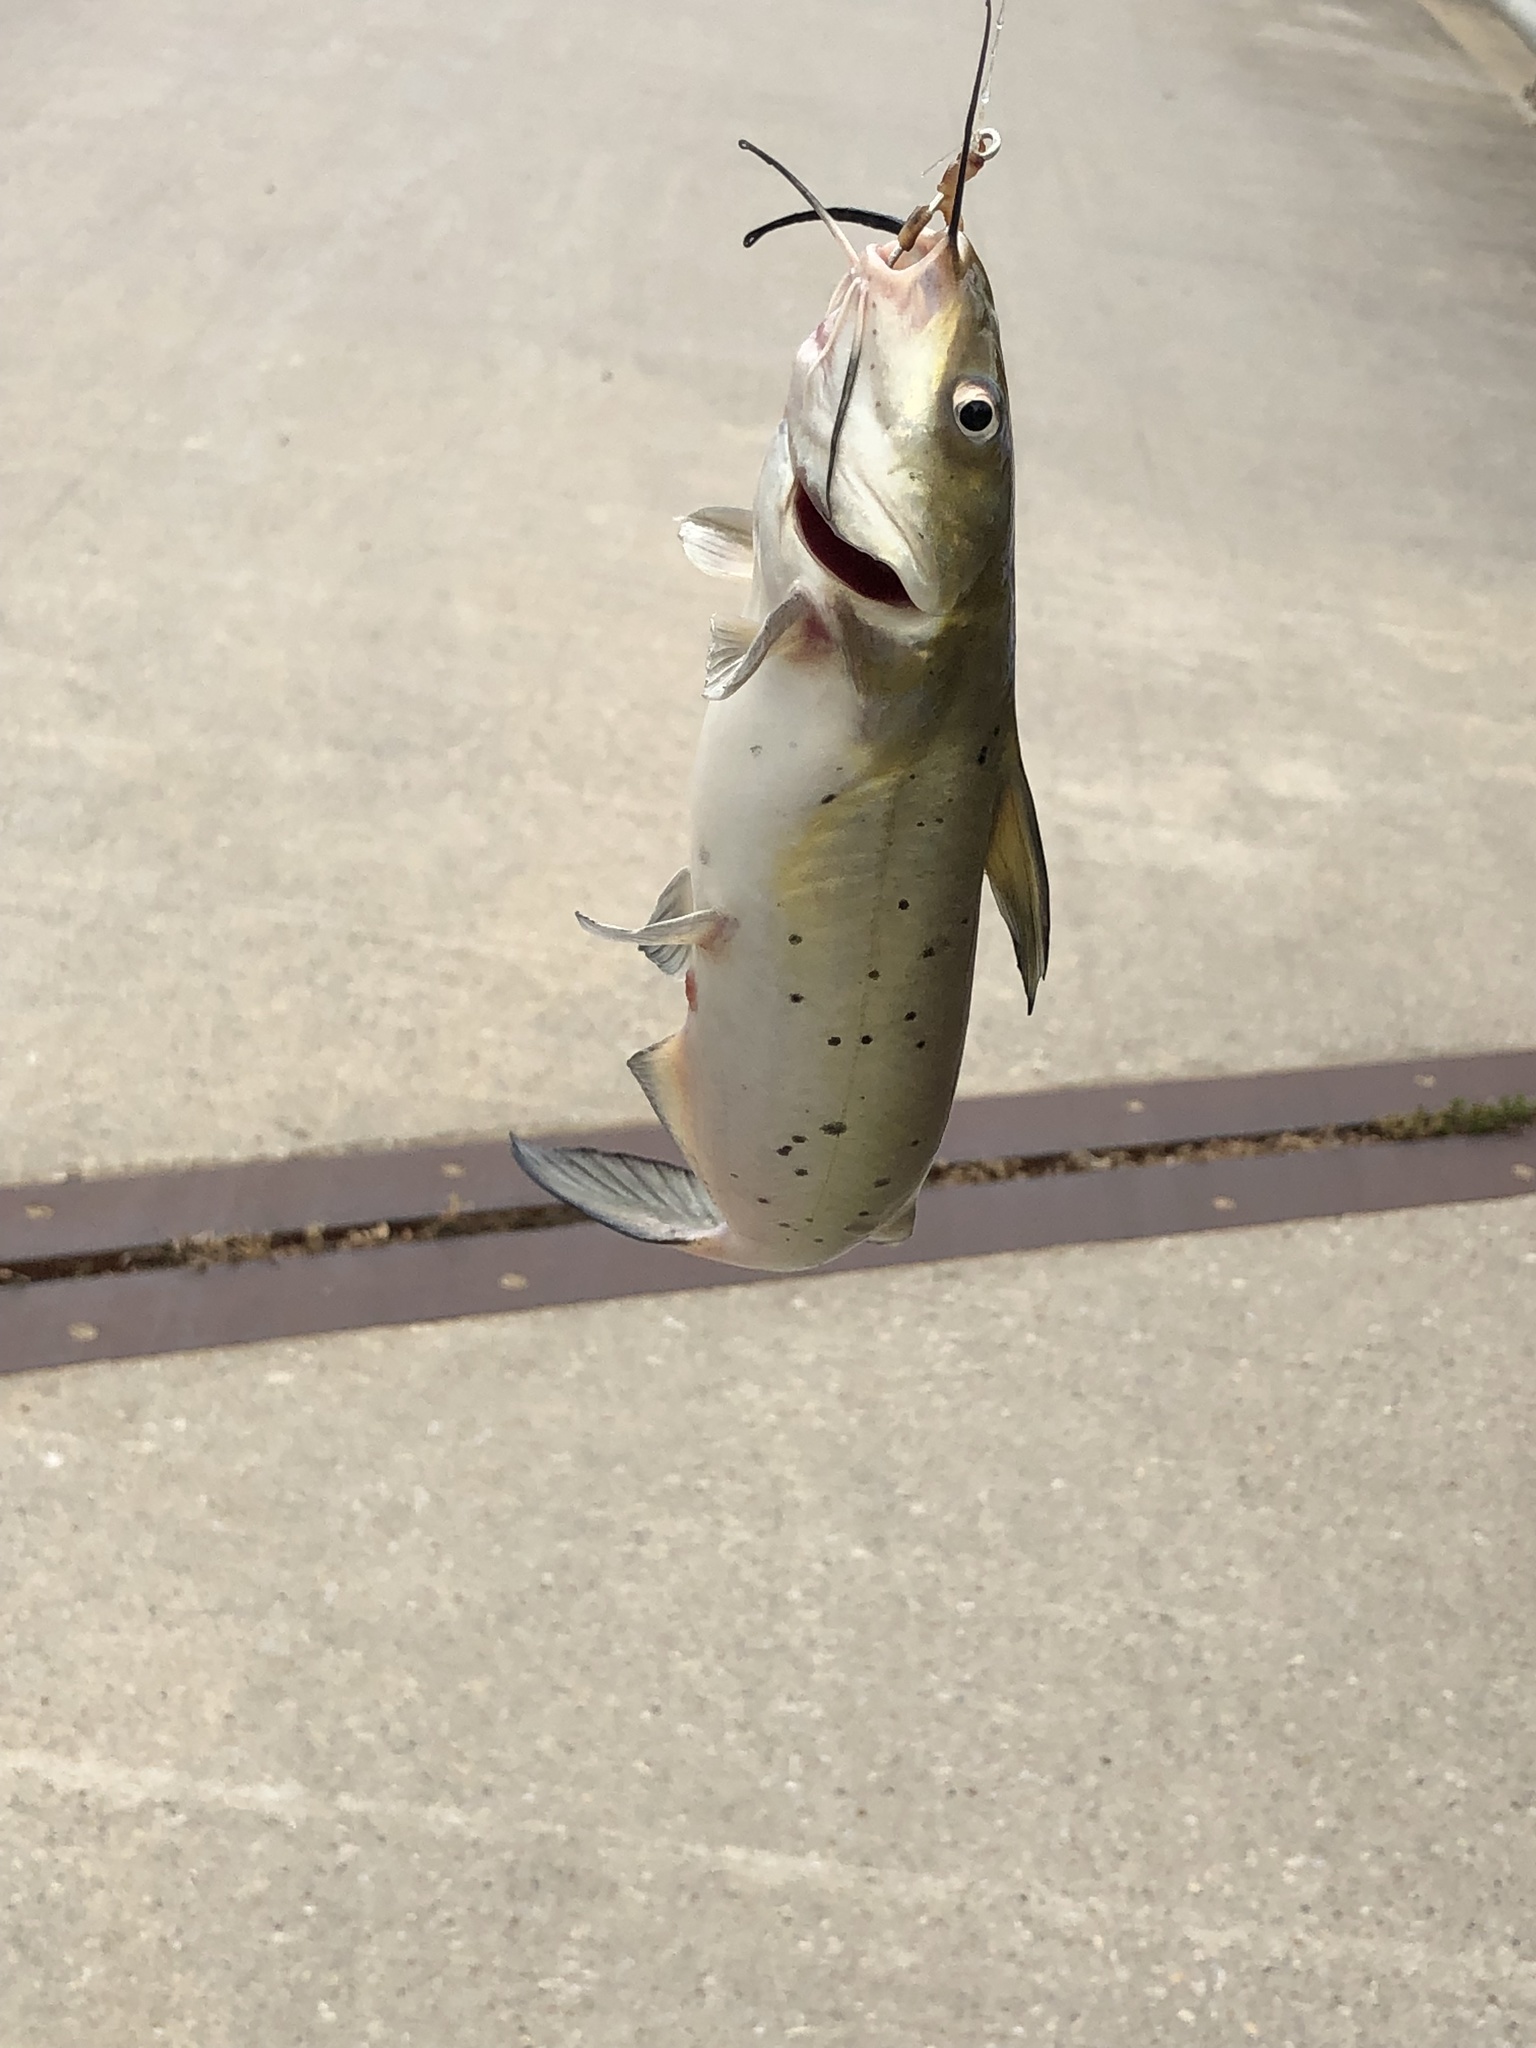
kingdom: Animalia
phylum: Chordata
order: Siluriformes
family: Ictaluridae
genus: Ictalurus
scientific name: Ictalurus punctatus
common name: Channel catfish
